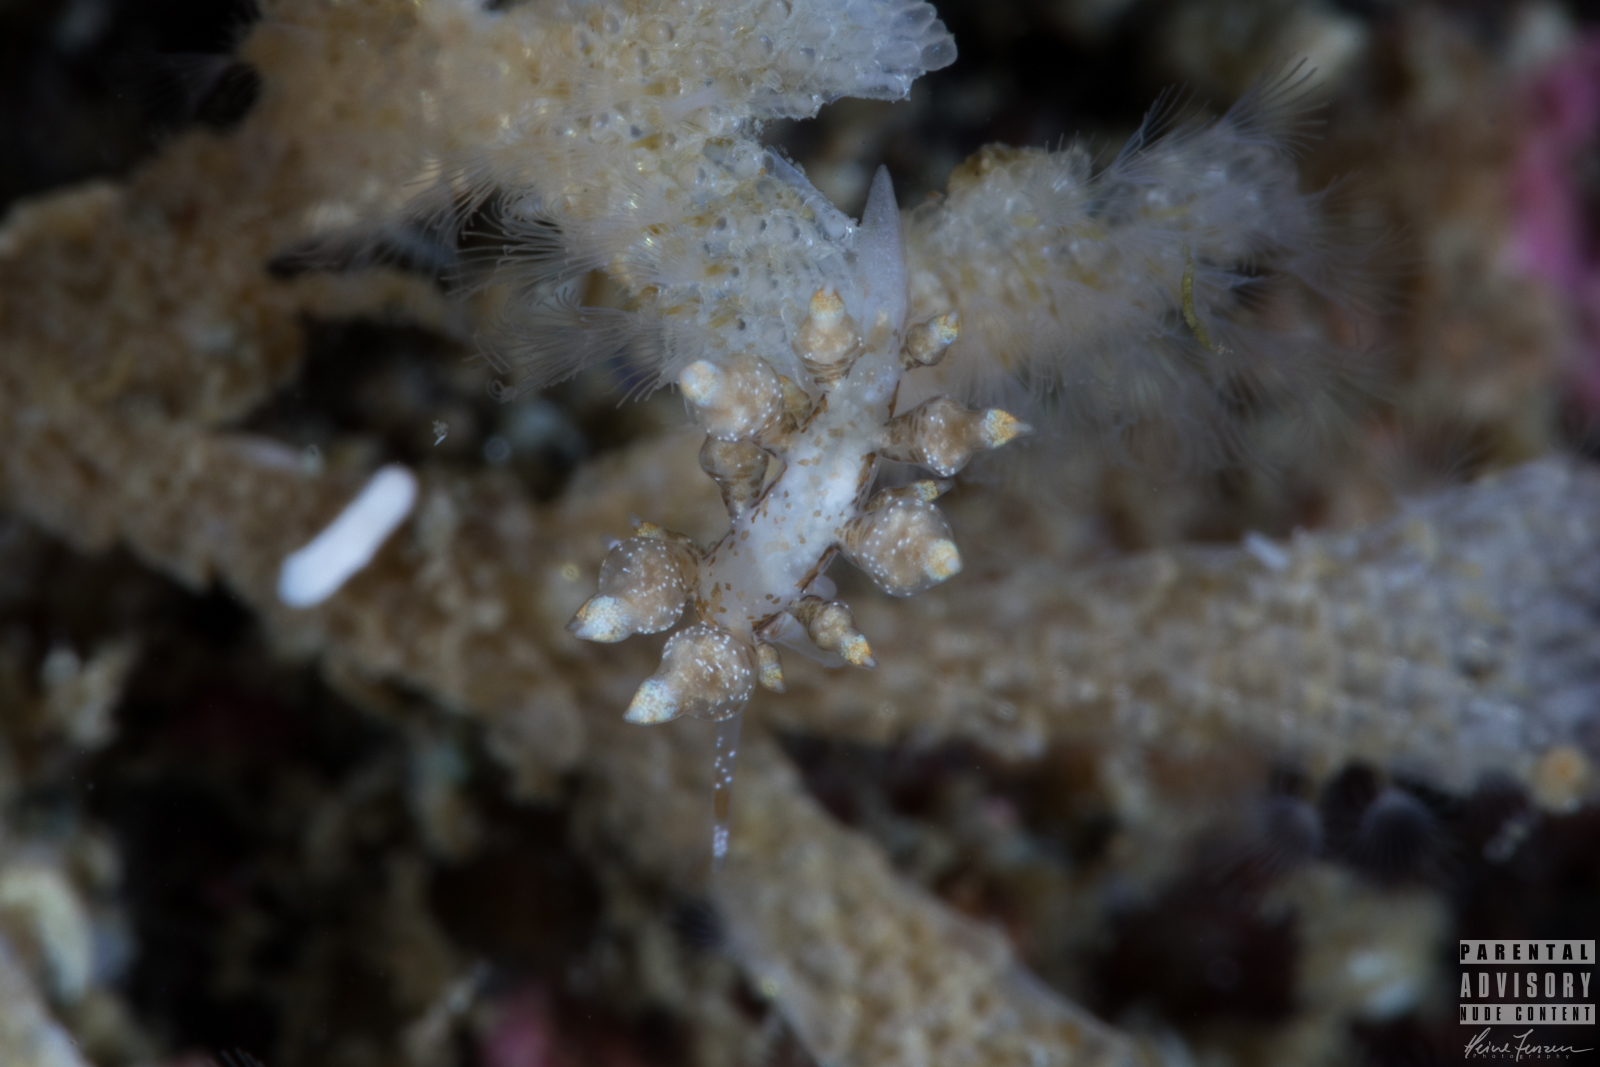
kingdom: Animalia
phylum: Mollusca
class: Gastropoda
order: Nudibranchia
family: Eubranchidae
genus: Eubranchus
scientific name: Eubranchus scintillans
